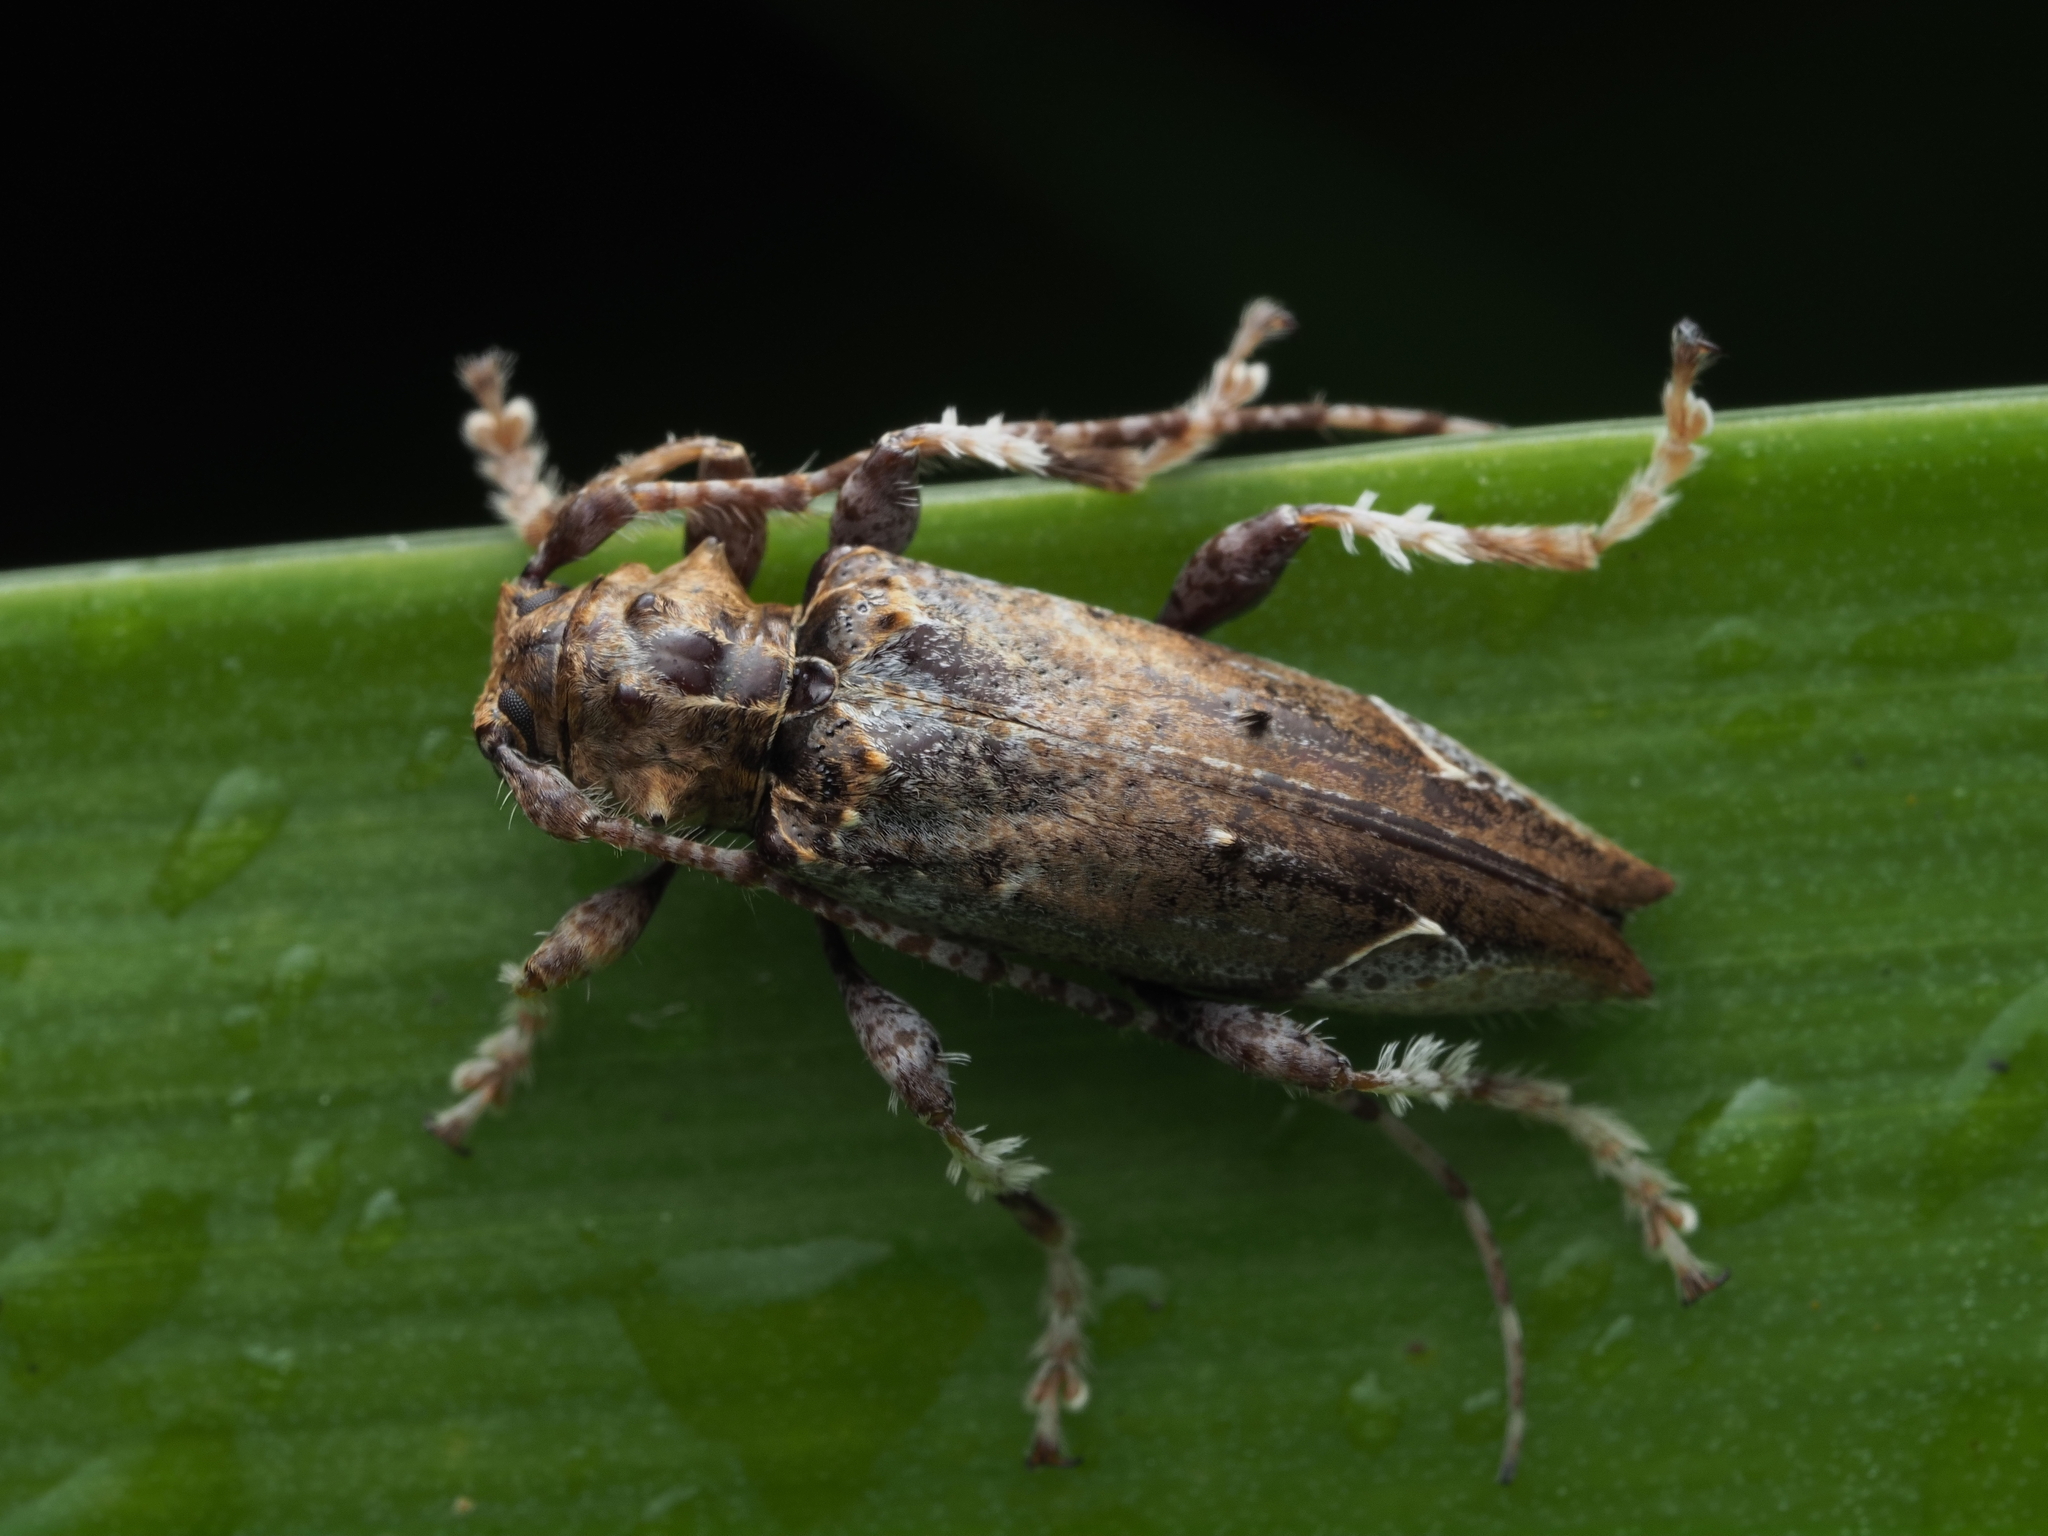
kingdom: Animalia
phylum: Arthropoda
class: Insecta
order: Coleoptera
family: Cerambycidae
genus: Tetrorea
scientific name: Tetrorea cilipes
